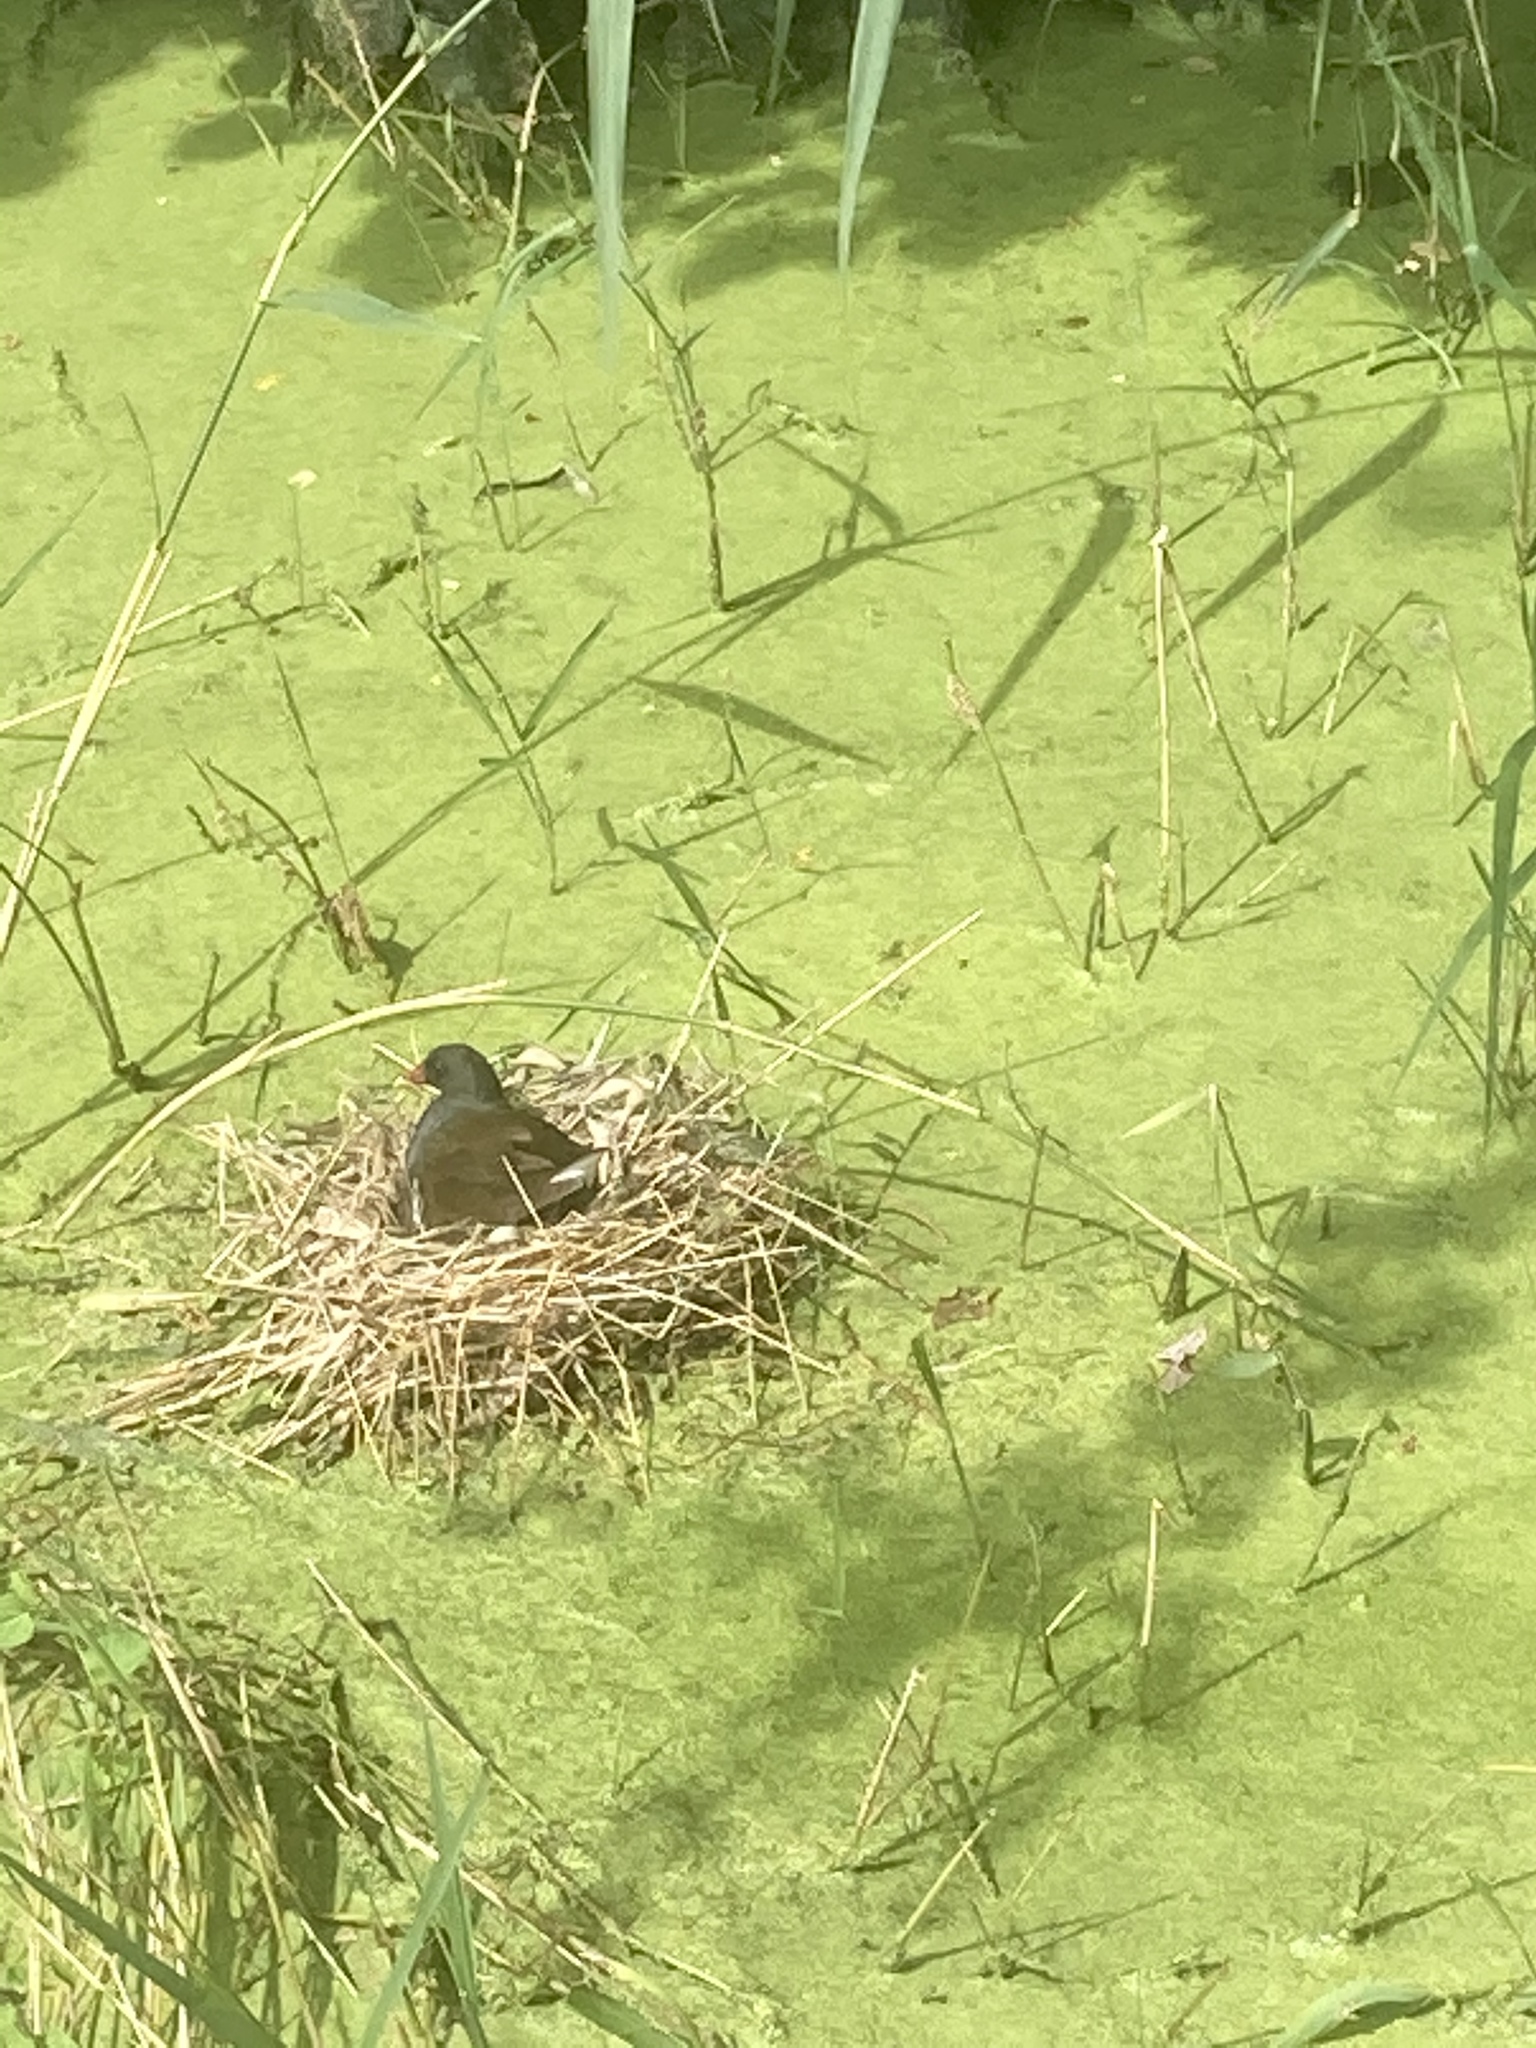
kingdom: Animalia
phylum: Chordata
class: Aves
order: Gruiformes
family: Rallidae
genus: Gallinula
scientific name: Gallinula chloropus
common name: Common moorhen
